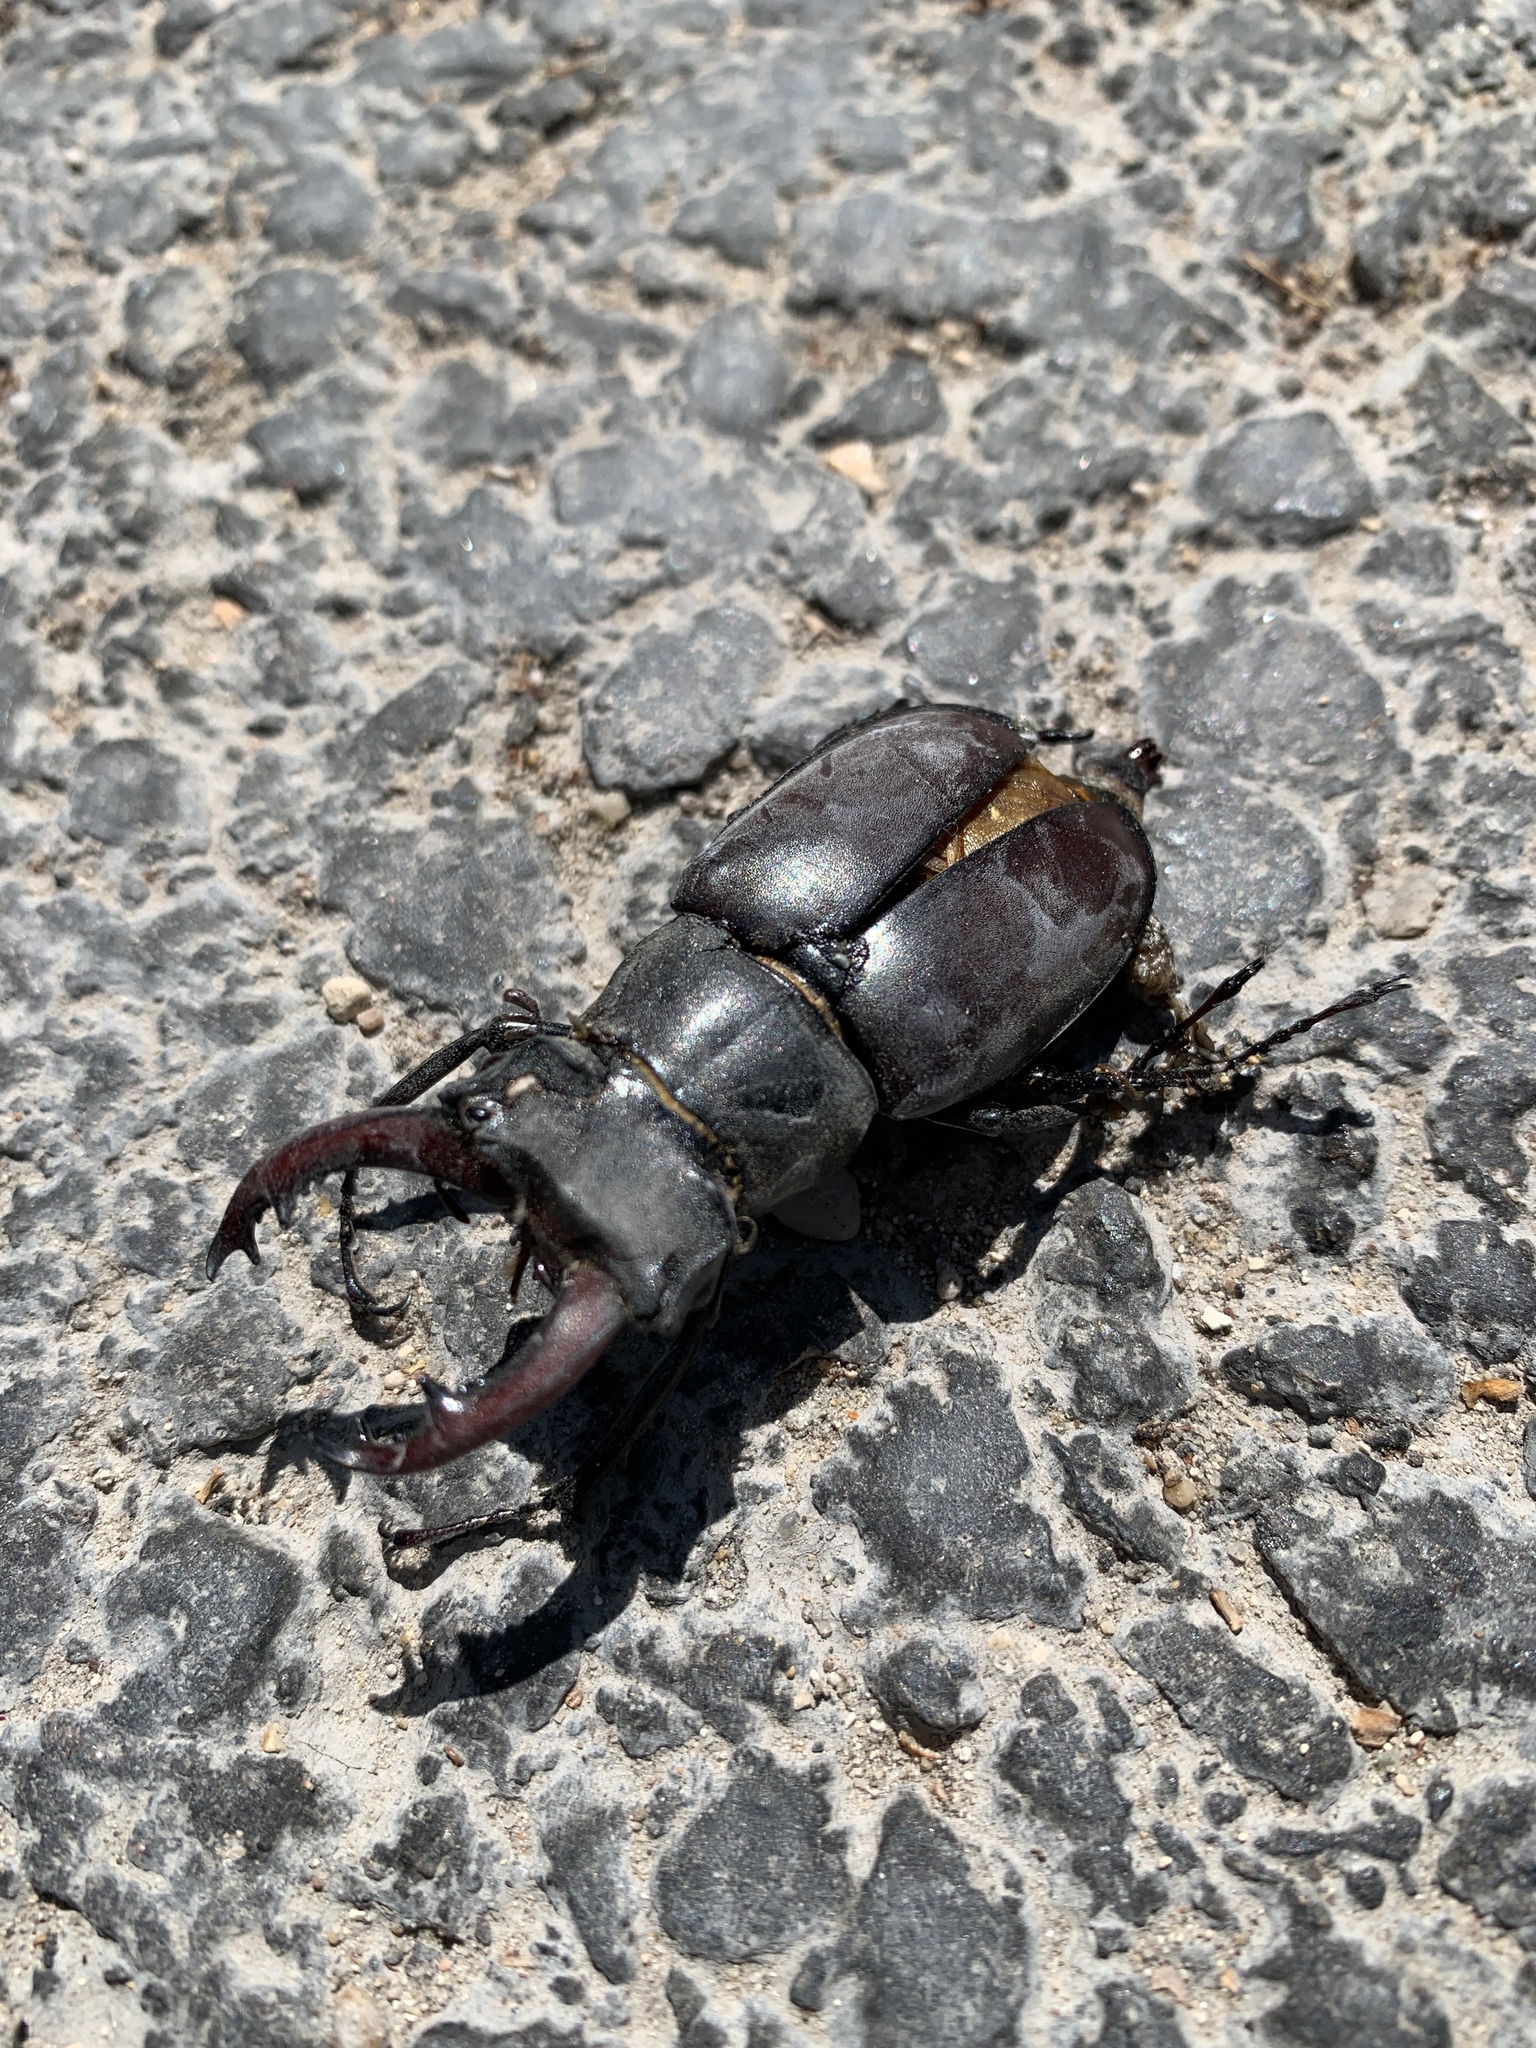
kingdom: Animalia
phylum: Arthropoda
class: Insecta
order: Coleoptera
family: Lucanidae
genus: Lucanus
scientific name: Lucanus cervus
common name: Stag beetle
